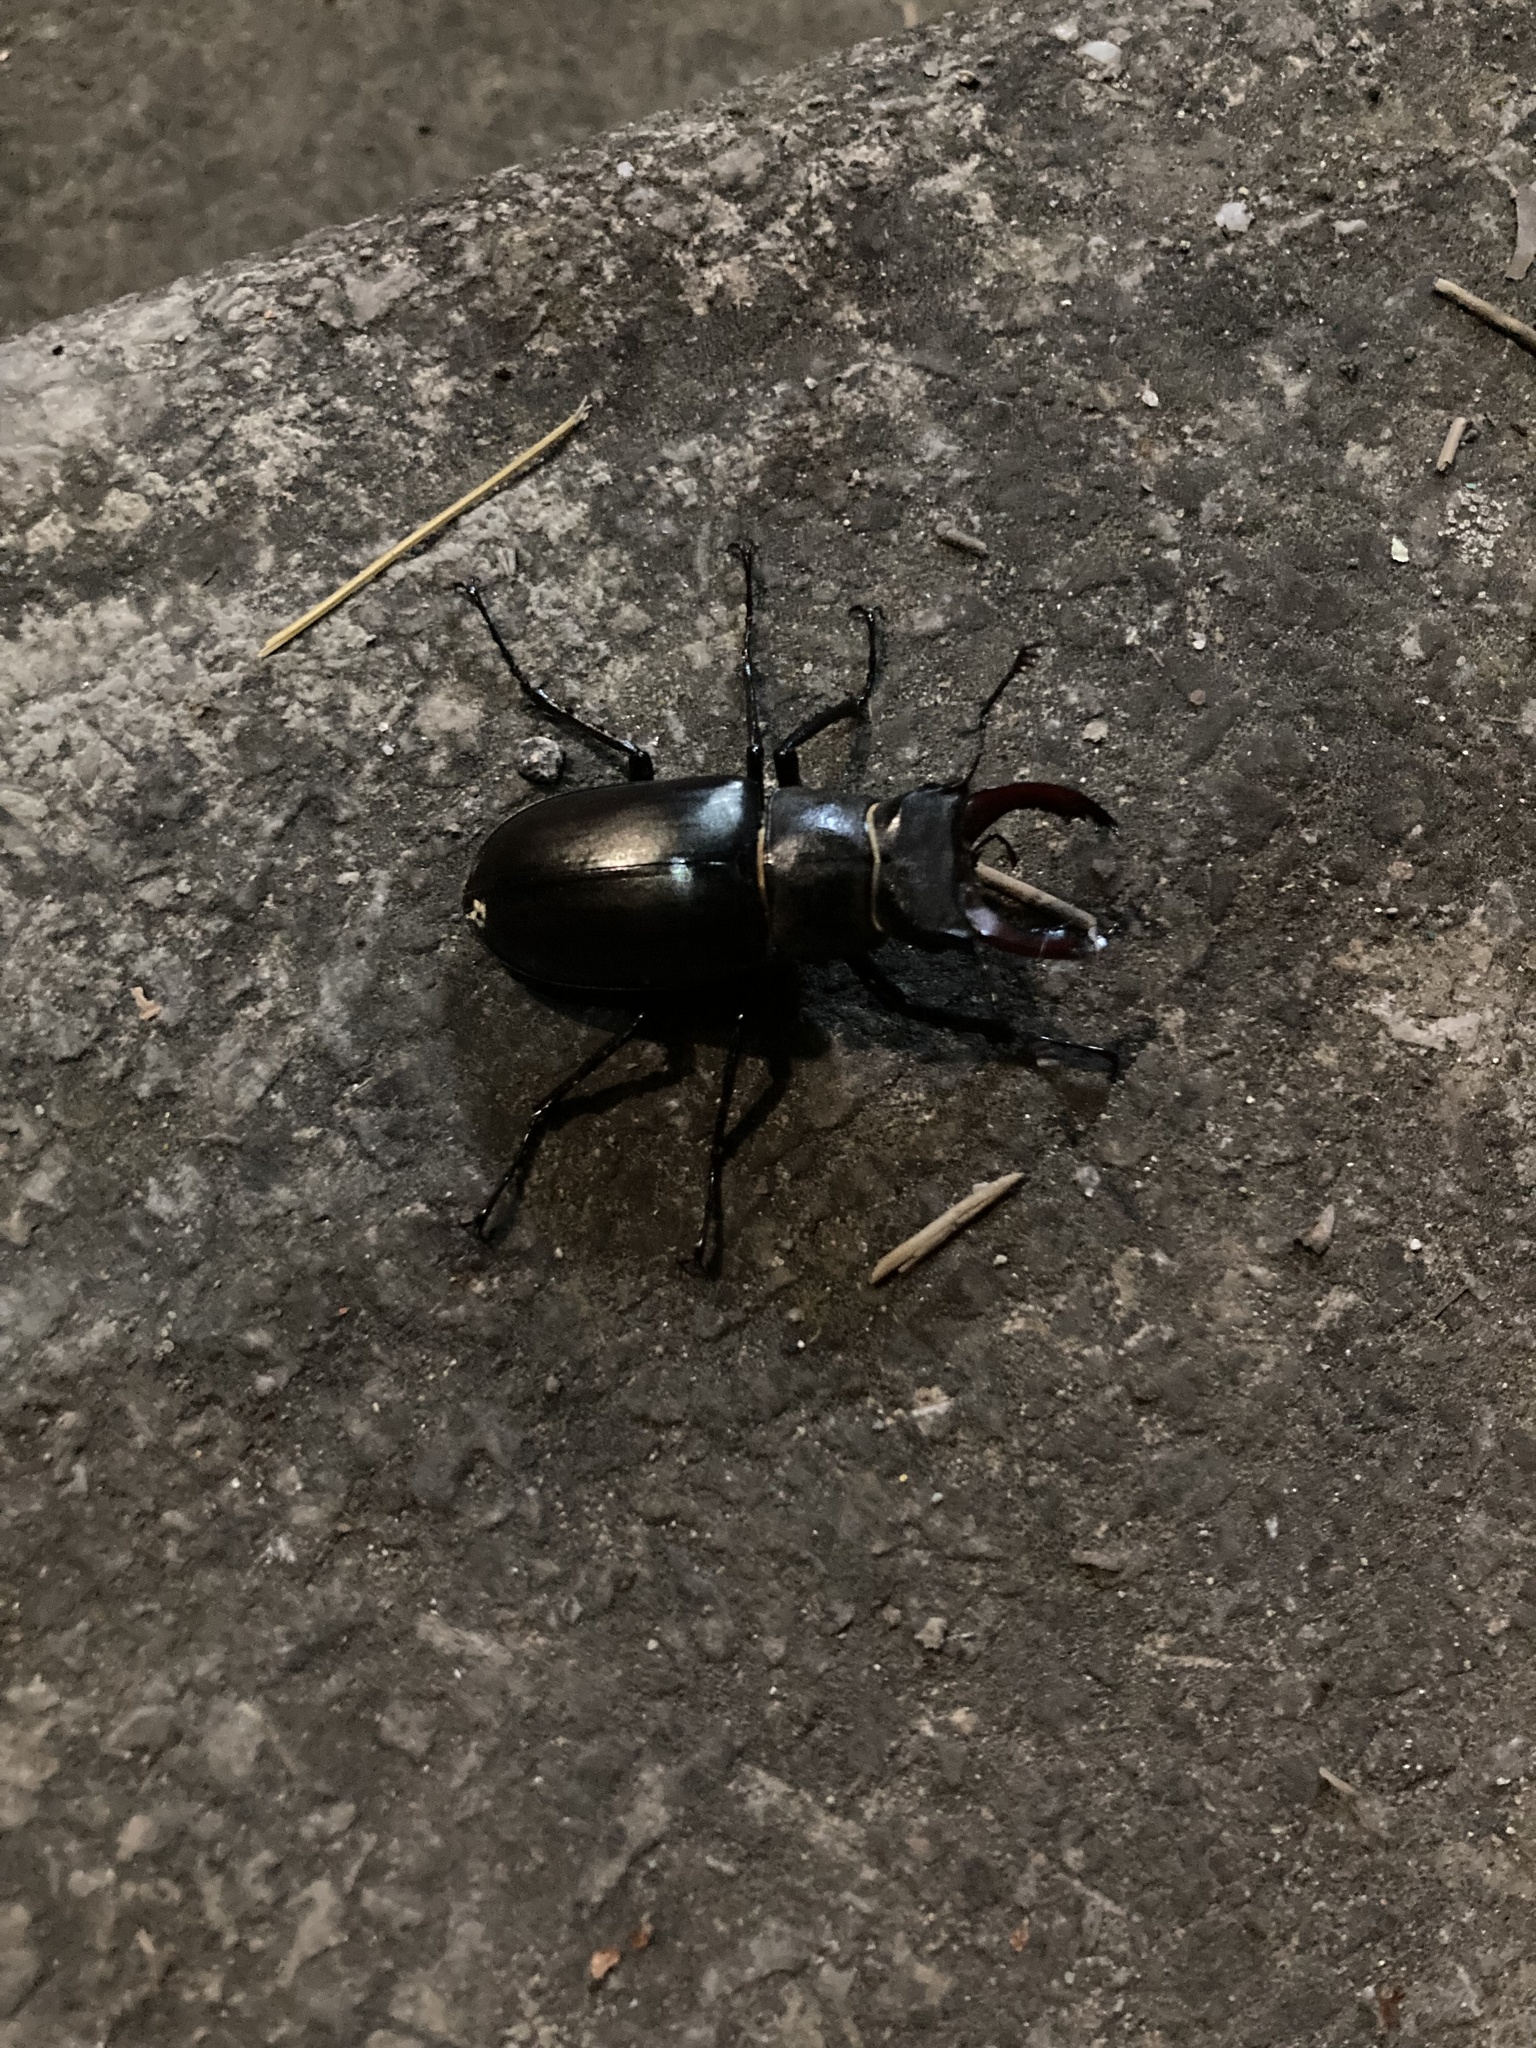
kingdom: Animalia
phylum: Arthropoda
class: Insecta
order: Coleoptera
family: Lucanidae
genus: Lucanus
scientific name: Lucanus cervus
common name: Stag beetle
